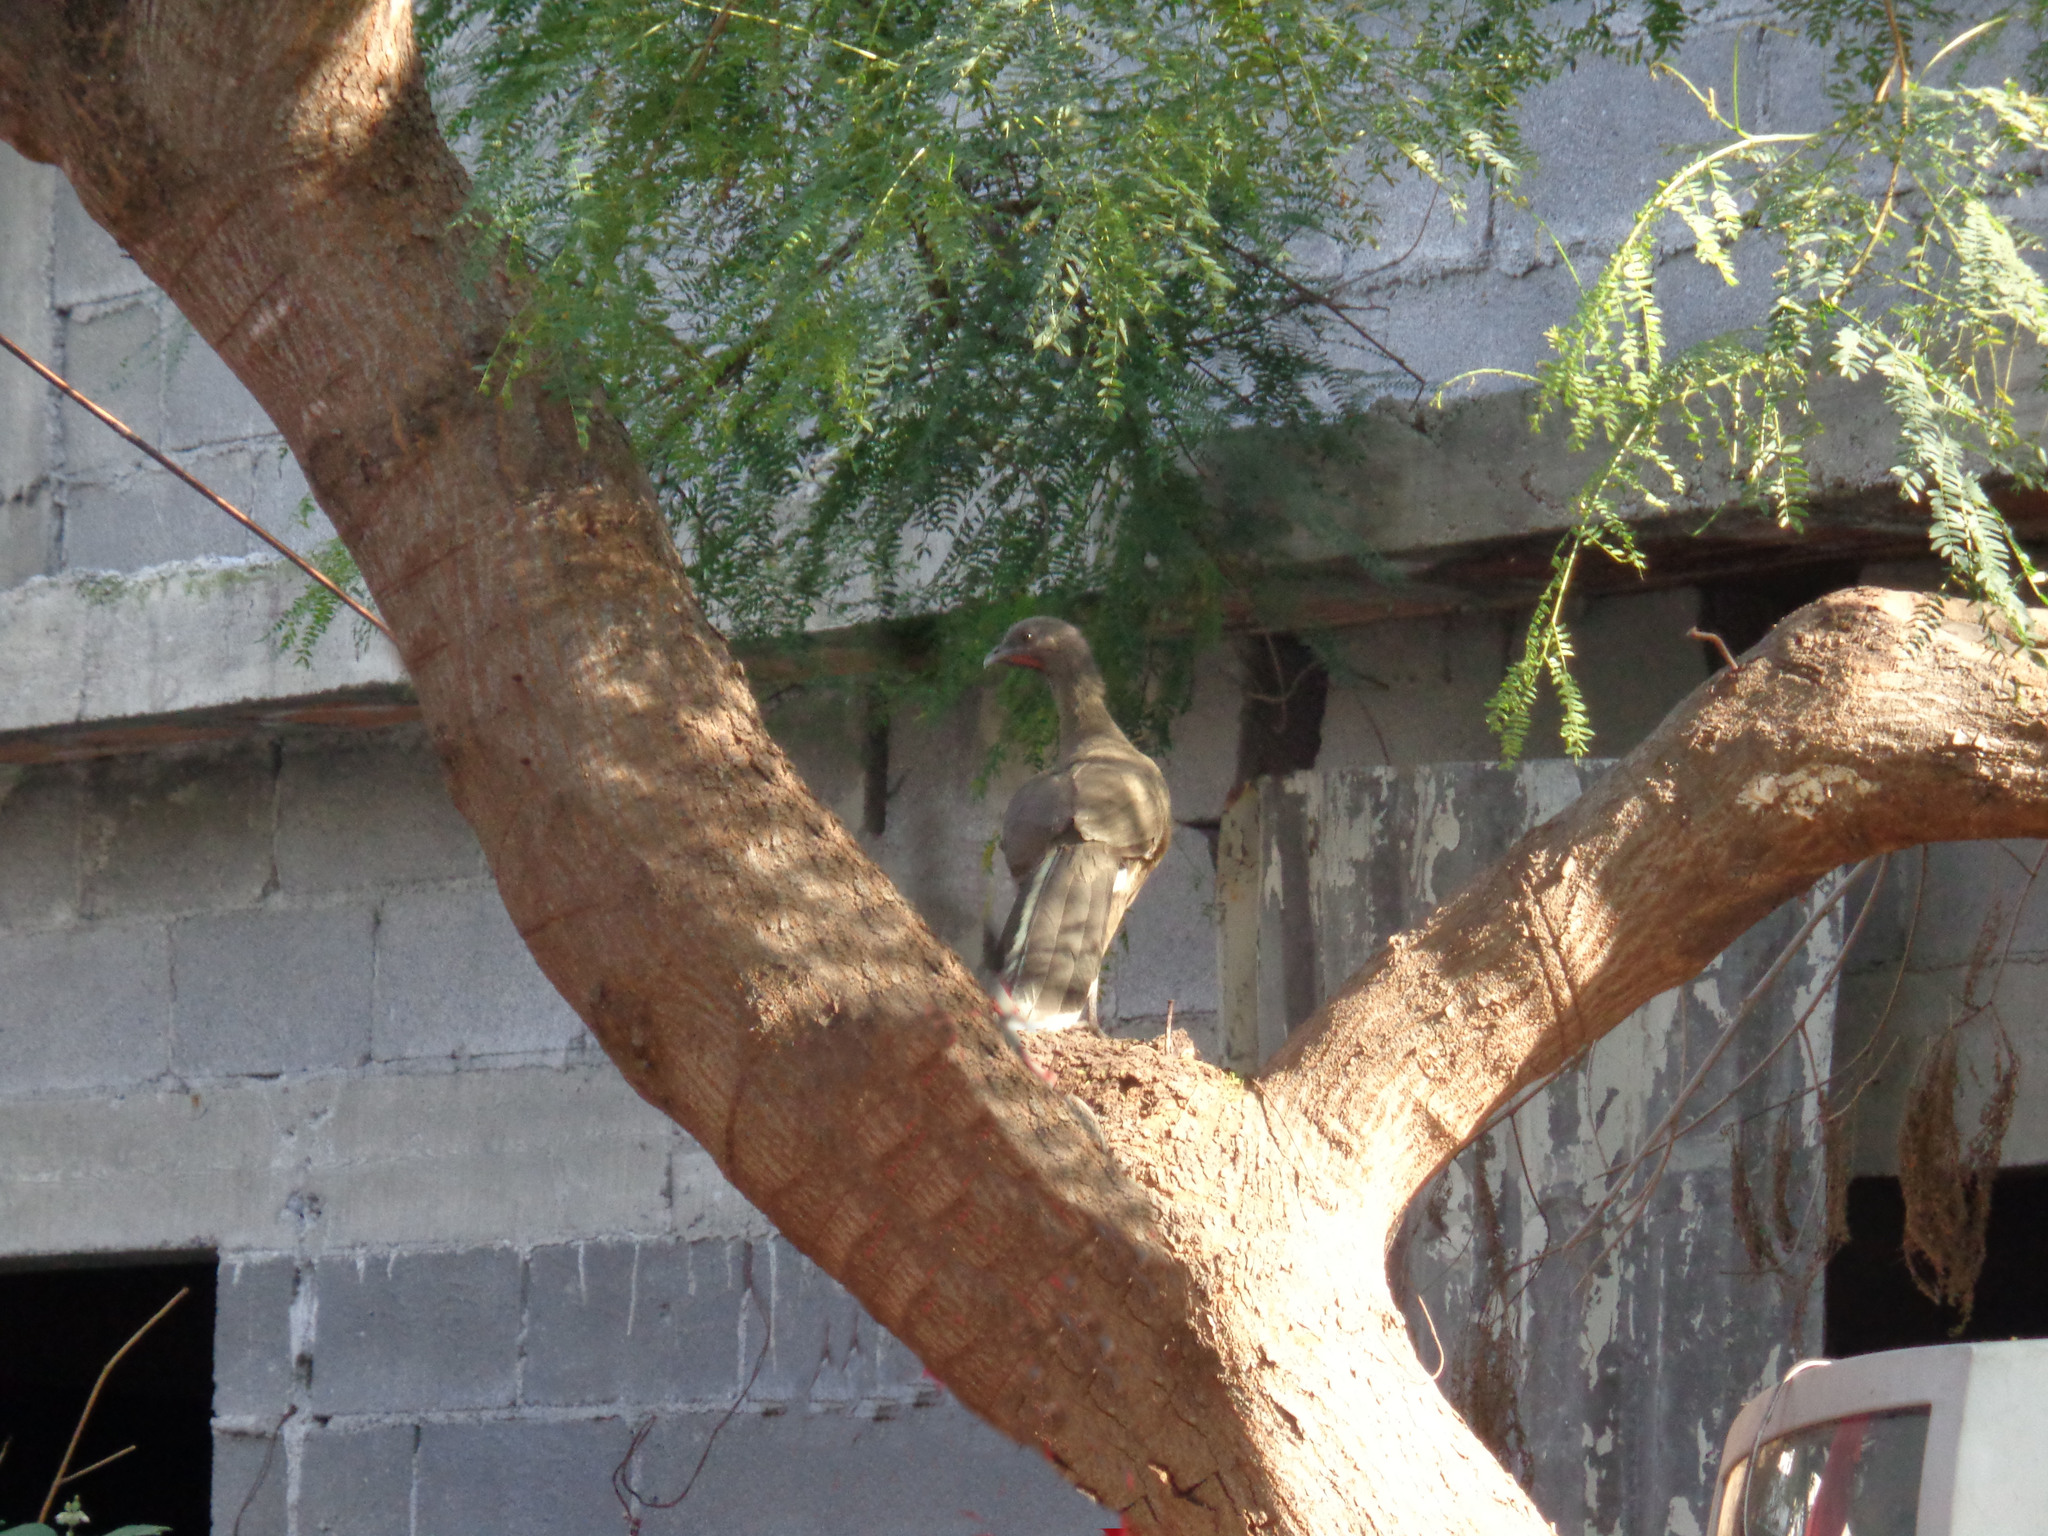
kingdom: Animalia
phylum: Chordata
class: Aves
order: Galliformes
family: Cracidae
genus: Ortalis
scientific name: Ortalis vetula
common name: Plain chachalaca
